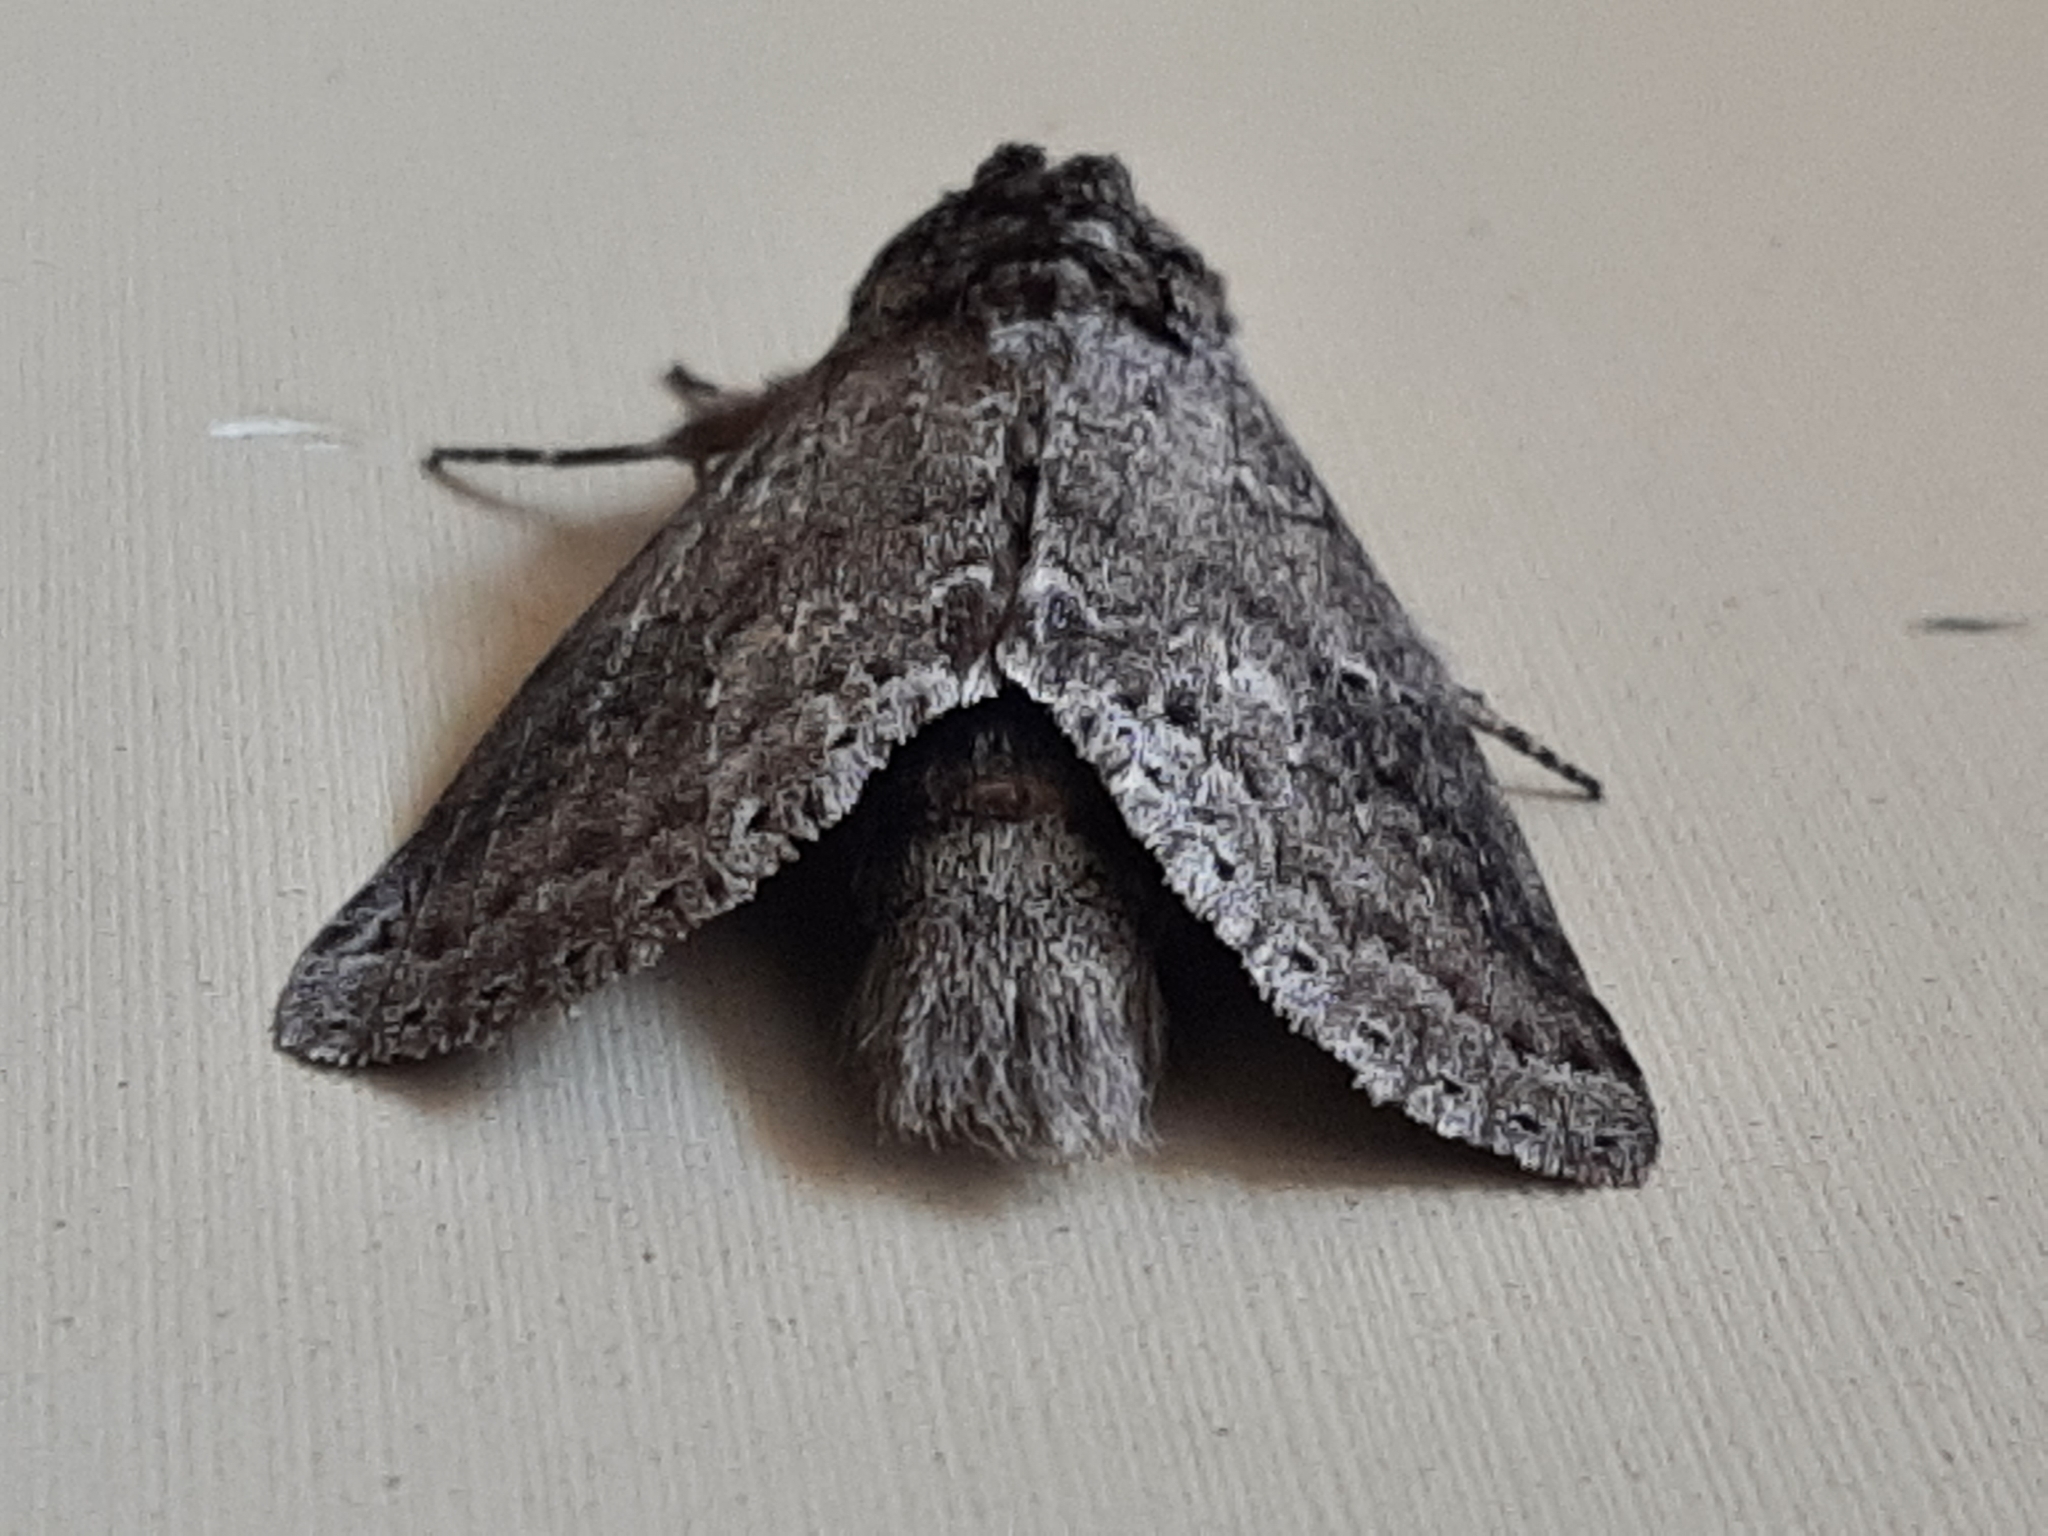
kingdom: Animalia
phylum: Arthropoda
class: Insecta
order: Lepidoptera
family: Notodontidae
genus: Lochmaeus
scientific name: Lochmaeus manteo
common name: Variable oakleaf caterpillar moth
